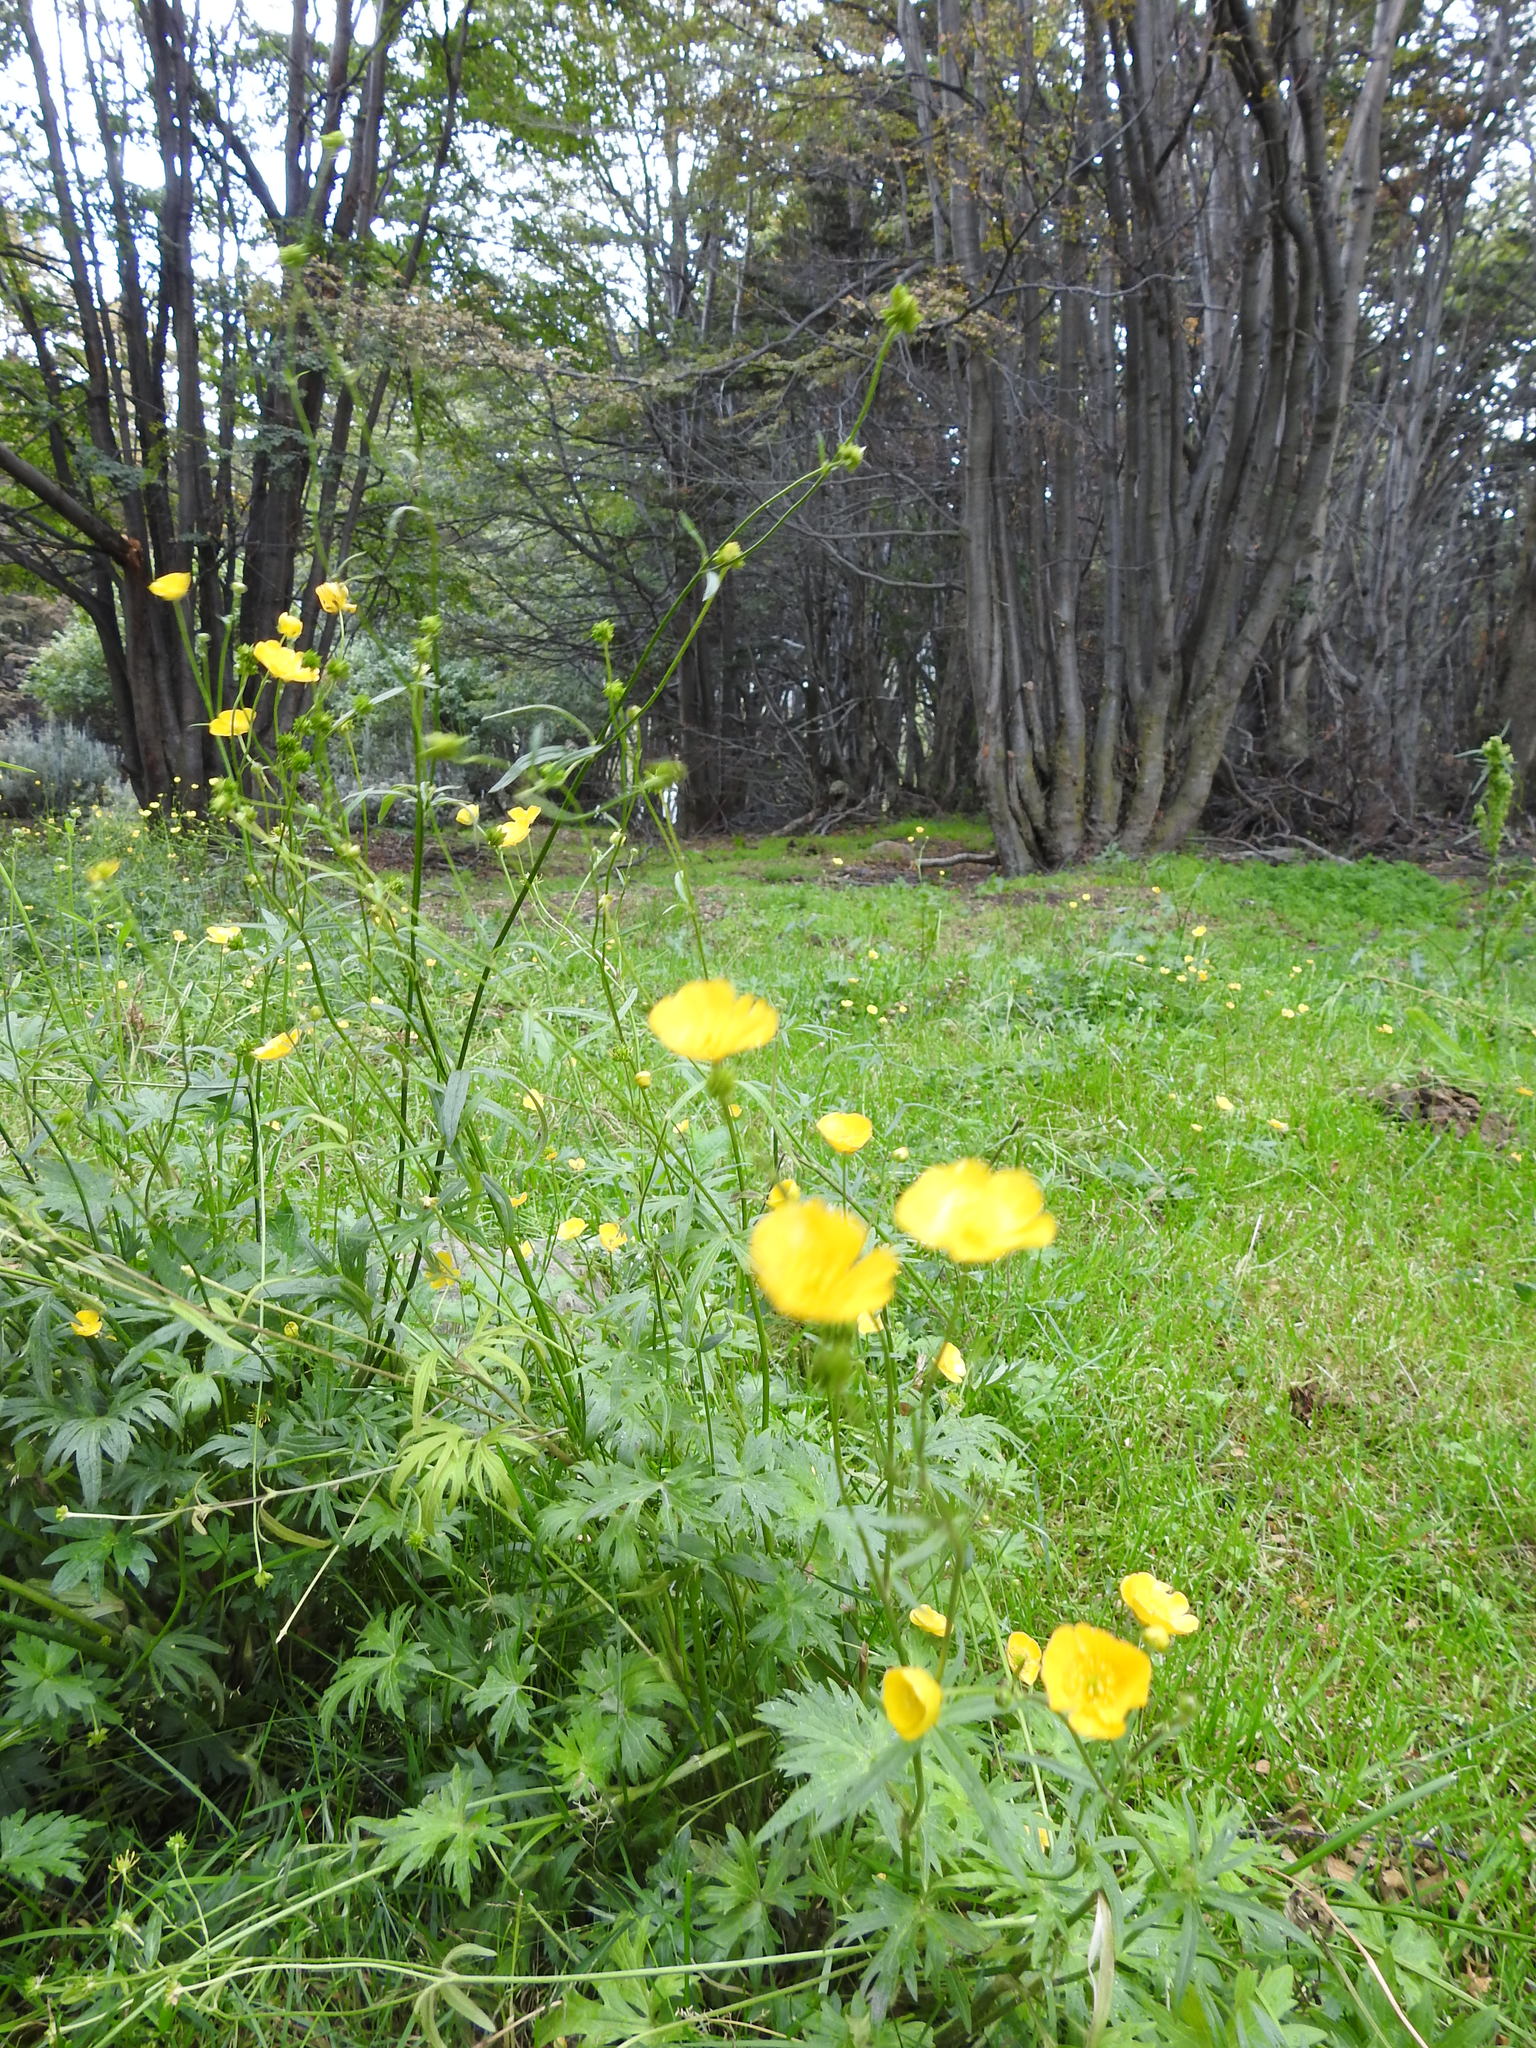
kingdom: Plantae
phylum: Tracheophyta
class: Magnoliopsida
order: Ranunculales
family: Ranunculaceae
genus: Ranunculus
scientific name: Ranunculus acris
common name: Meadow buttercup
